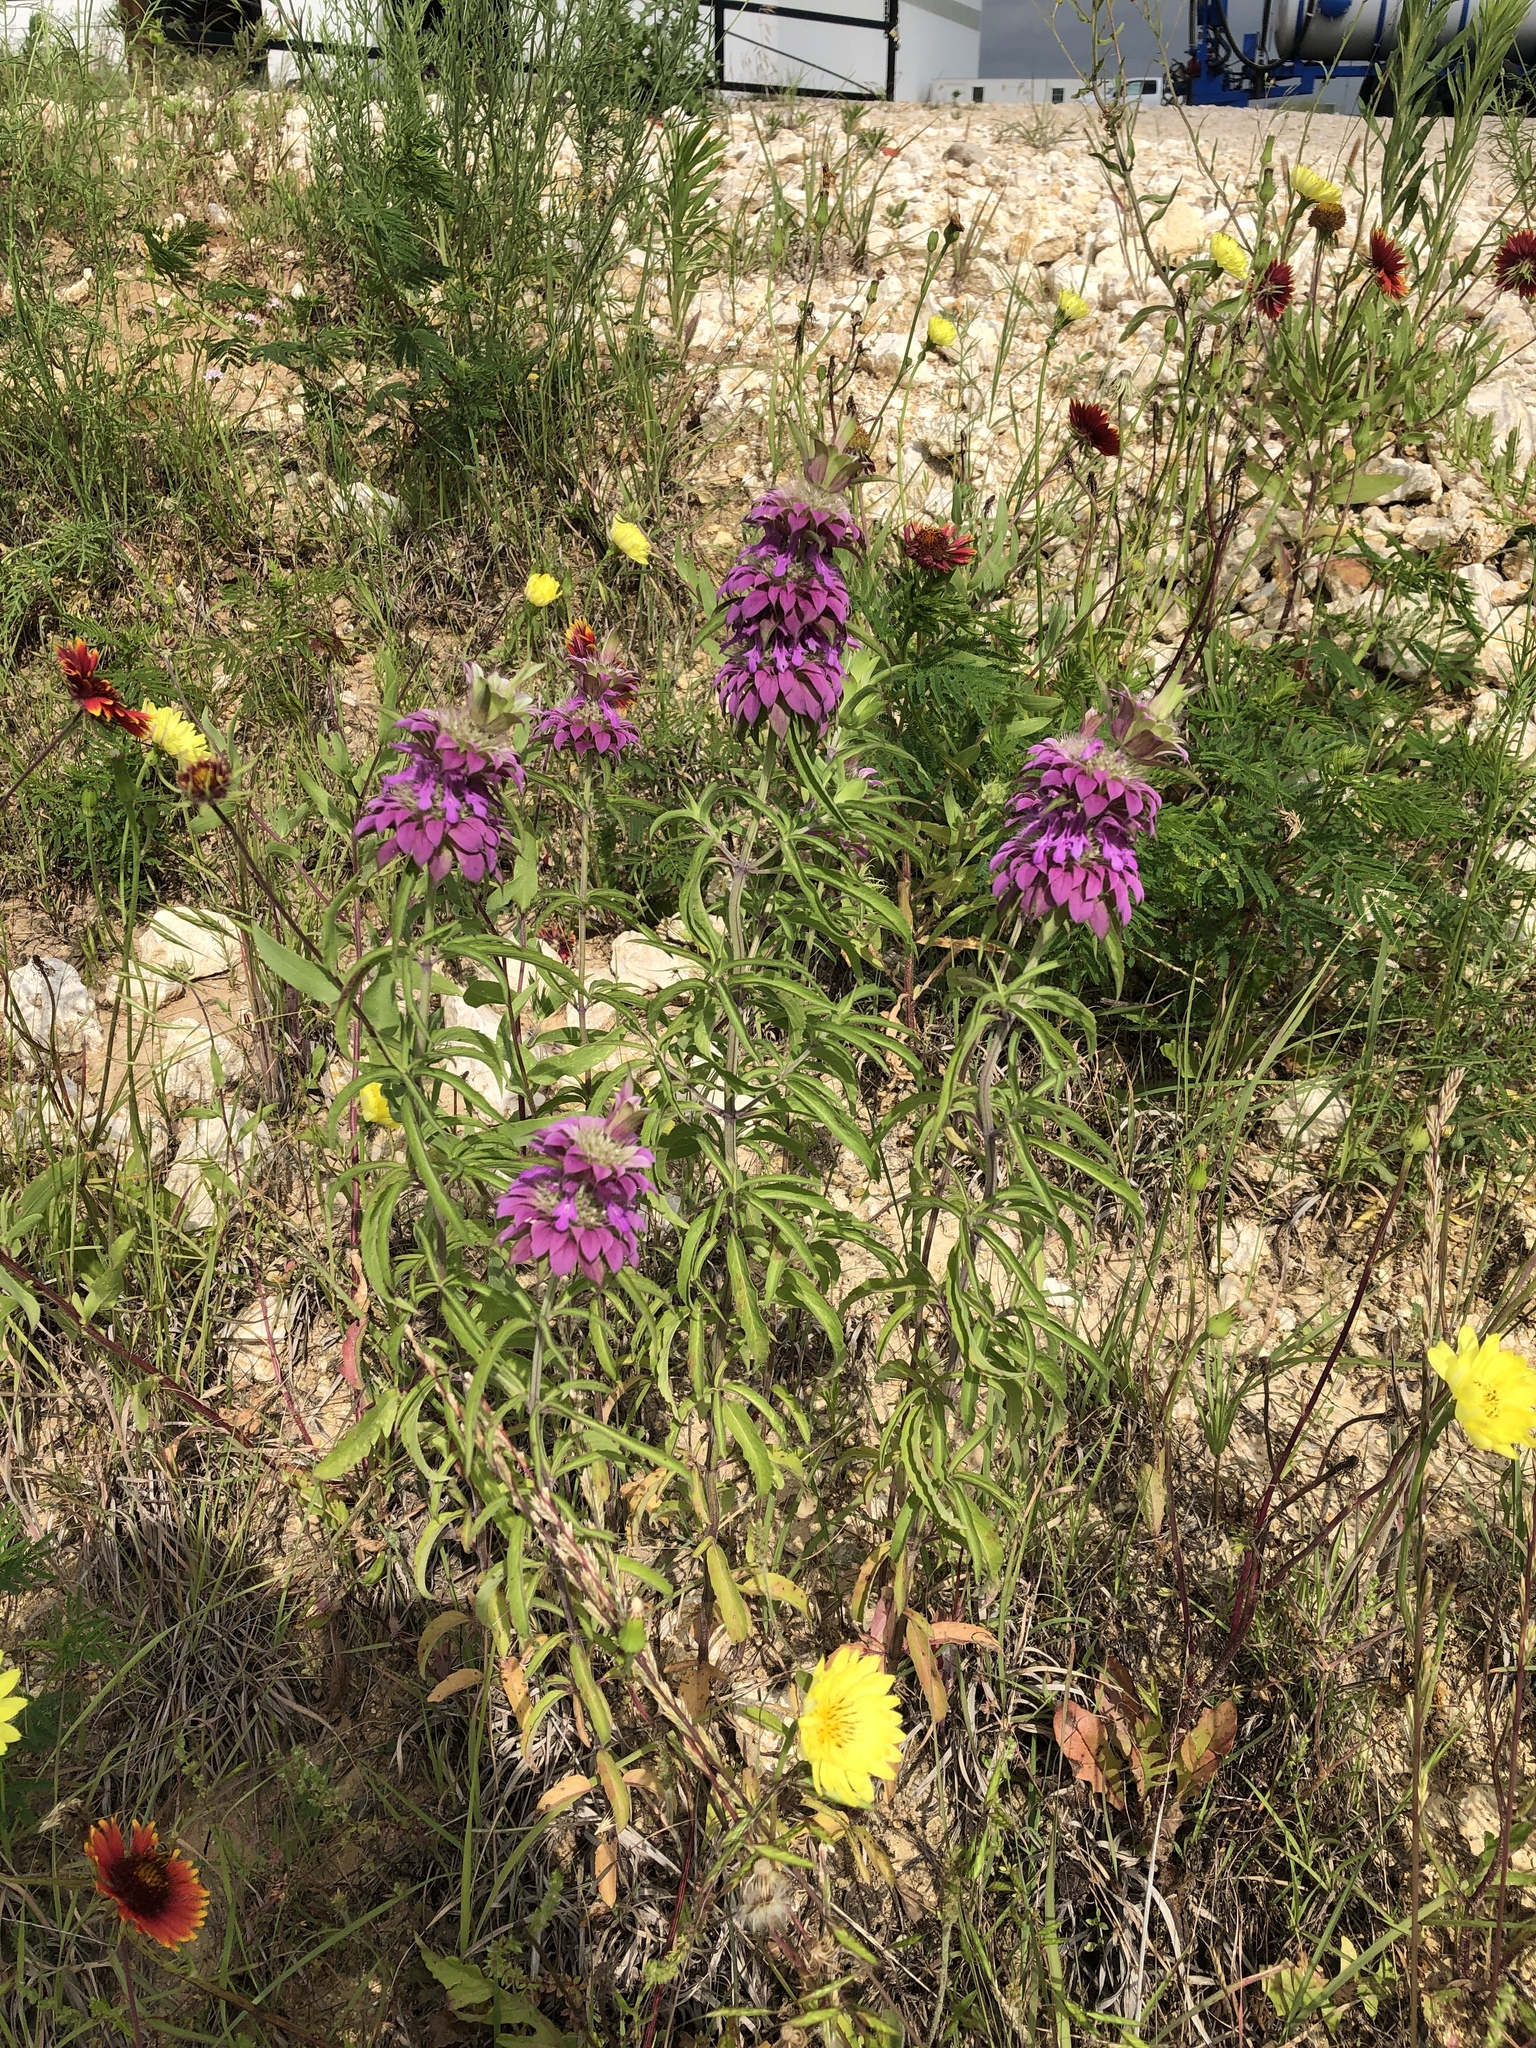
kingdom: Plantae
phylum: Tracheophyta
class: Magnoliopsida
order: Lamiales
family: Lamiaceae
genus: Monarda
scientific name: Monarda citriodora
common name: Lemon beebalm
